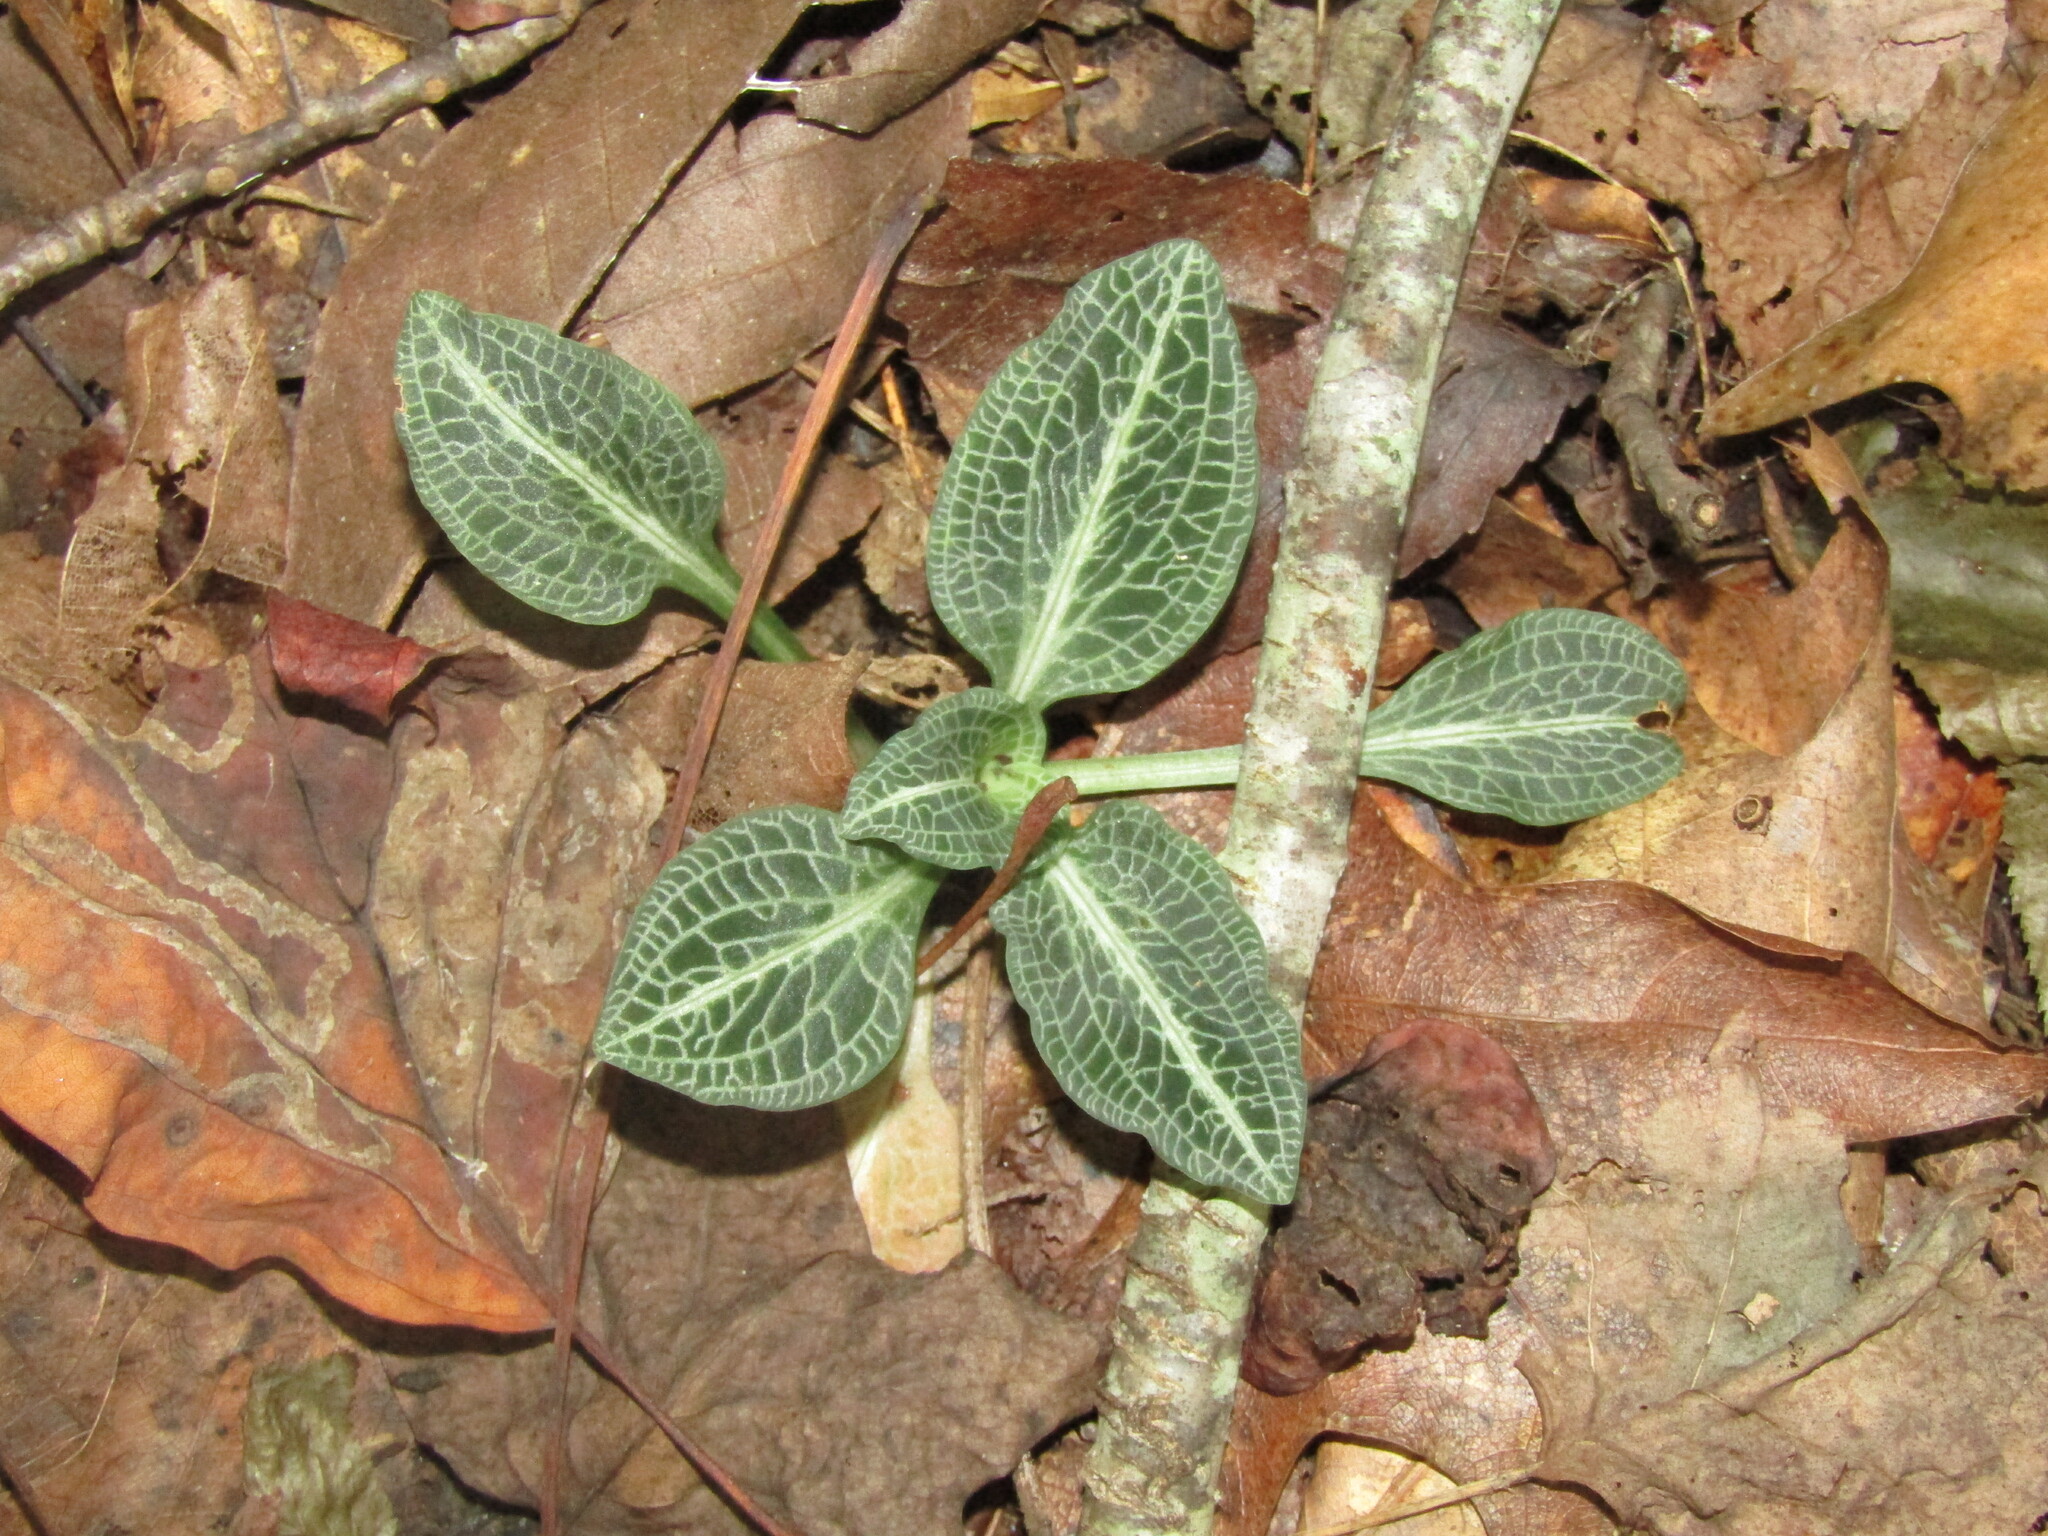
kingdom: Plantae
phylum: Tracheophyta
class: Liliopsida
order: Asparagales
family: Orchidaceae
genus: Goodyera
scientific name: Goodyera pubescens
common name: Downy rattlesnake-plantain
